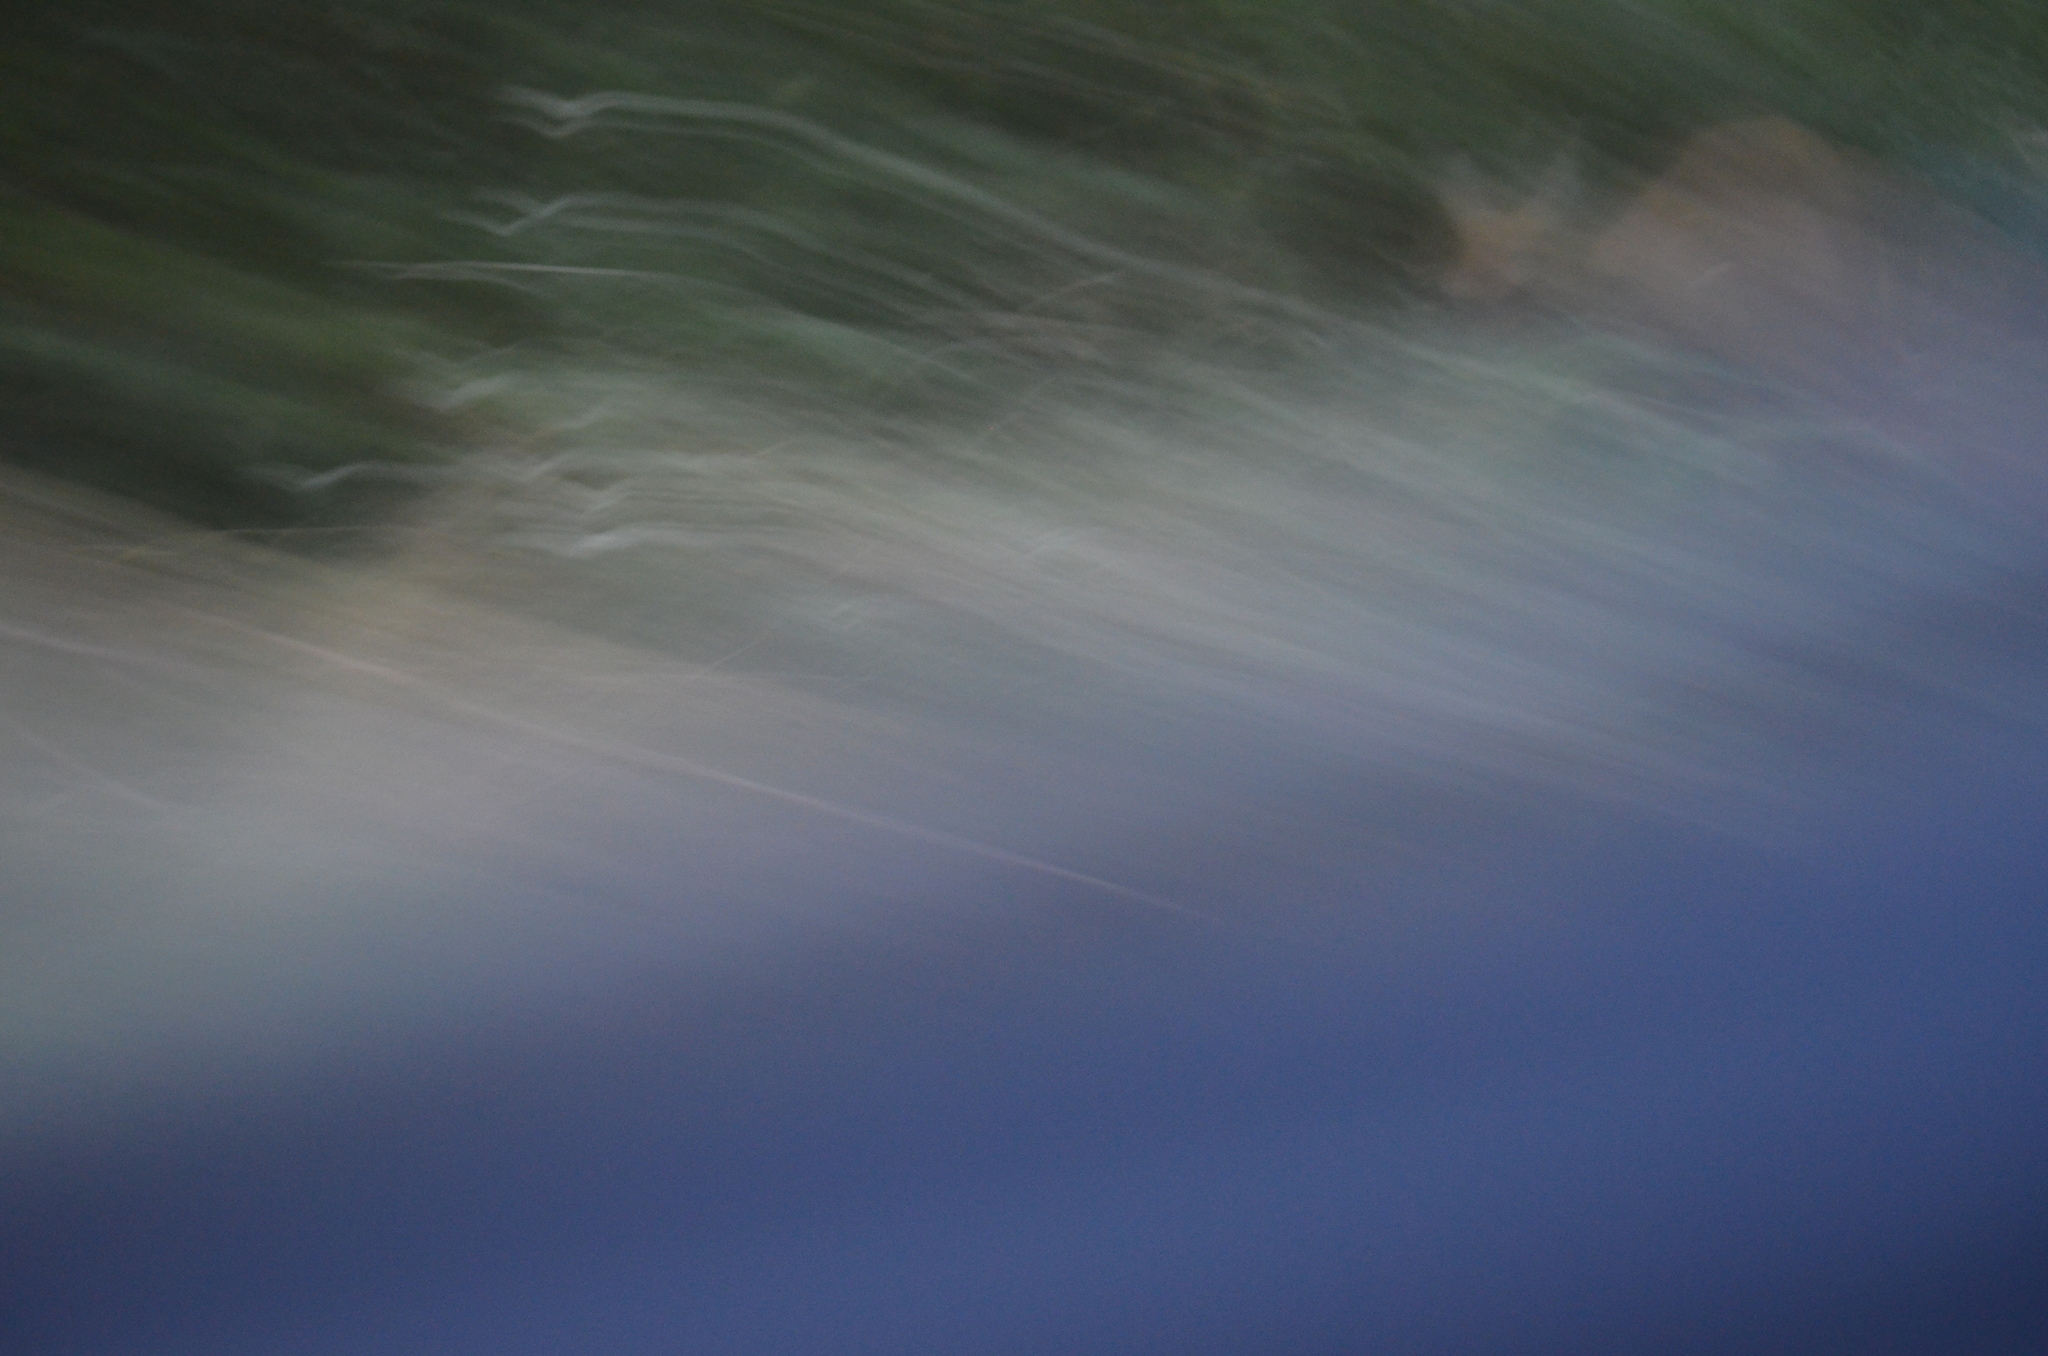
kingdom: Animalia
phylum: Chordata
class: Mammalia
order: Artiodactyla
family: Cervidae
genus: Odocoileus
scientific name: Odocoileus hemionus
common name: Mule deer
